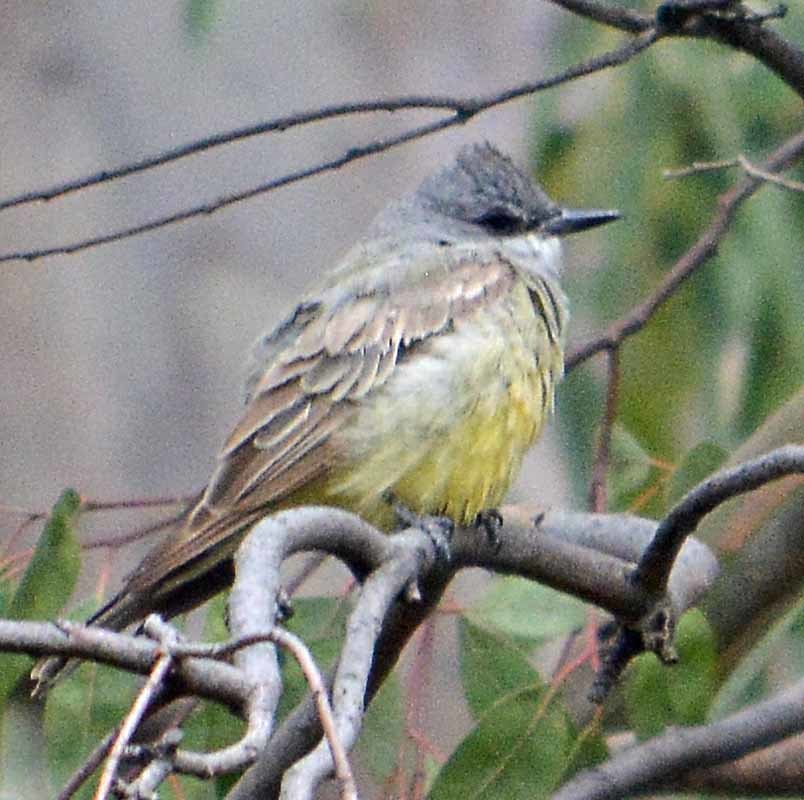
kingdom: Animalia
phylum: Chordata
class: Aves
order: Passeriformes
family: Tyrannidae
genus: Tyrannus
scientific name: Tyrannus vociferans
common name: Cassin's kingbird
